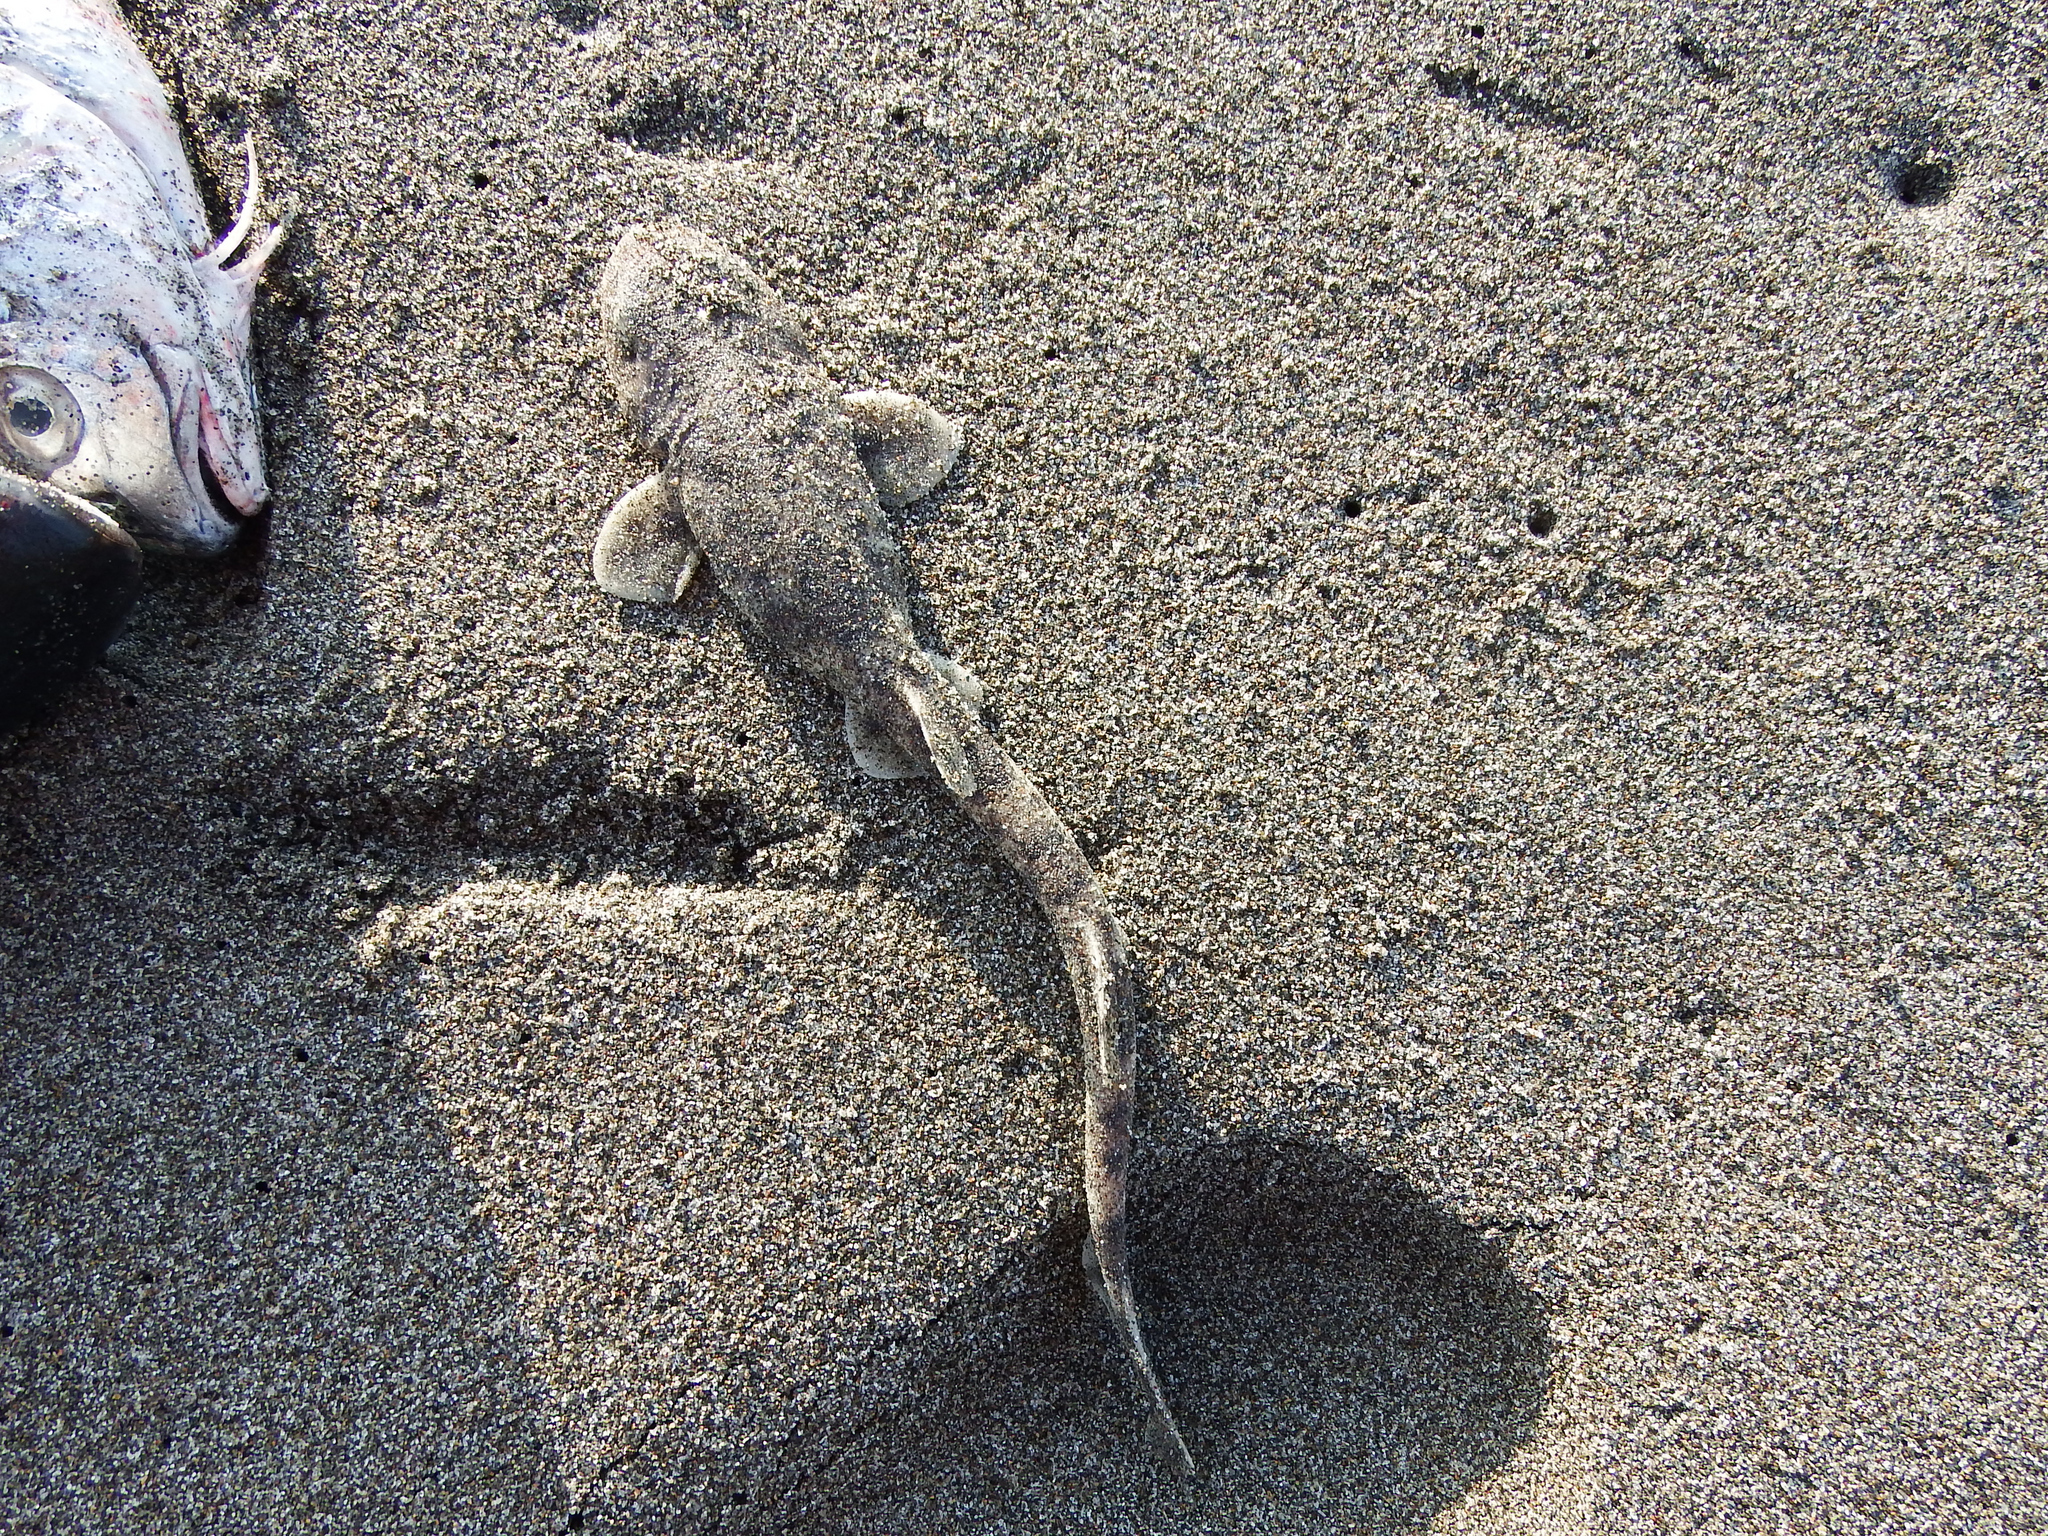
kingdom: Animalia
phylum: Chordata
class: Elasmobranchii
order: Carcharhiniformes
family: Scyliorhinidae
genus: Schroederichthys
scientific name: Schroederichthys chilensis
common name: Redspotted catshark
